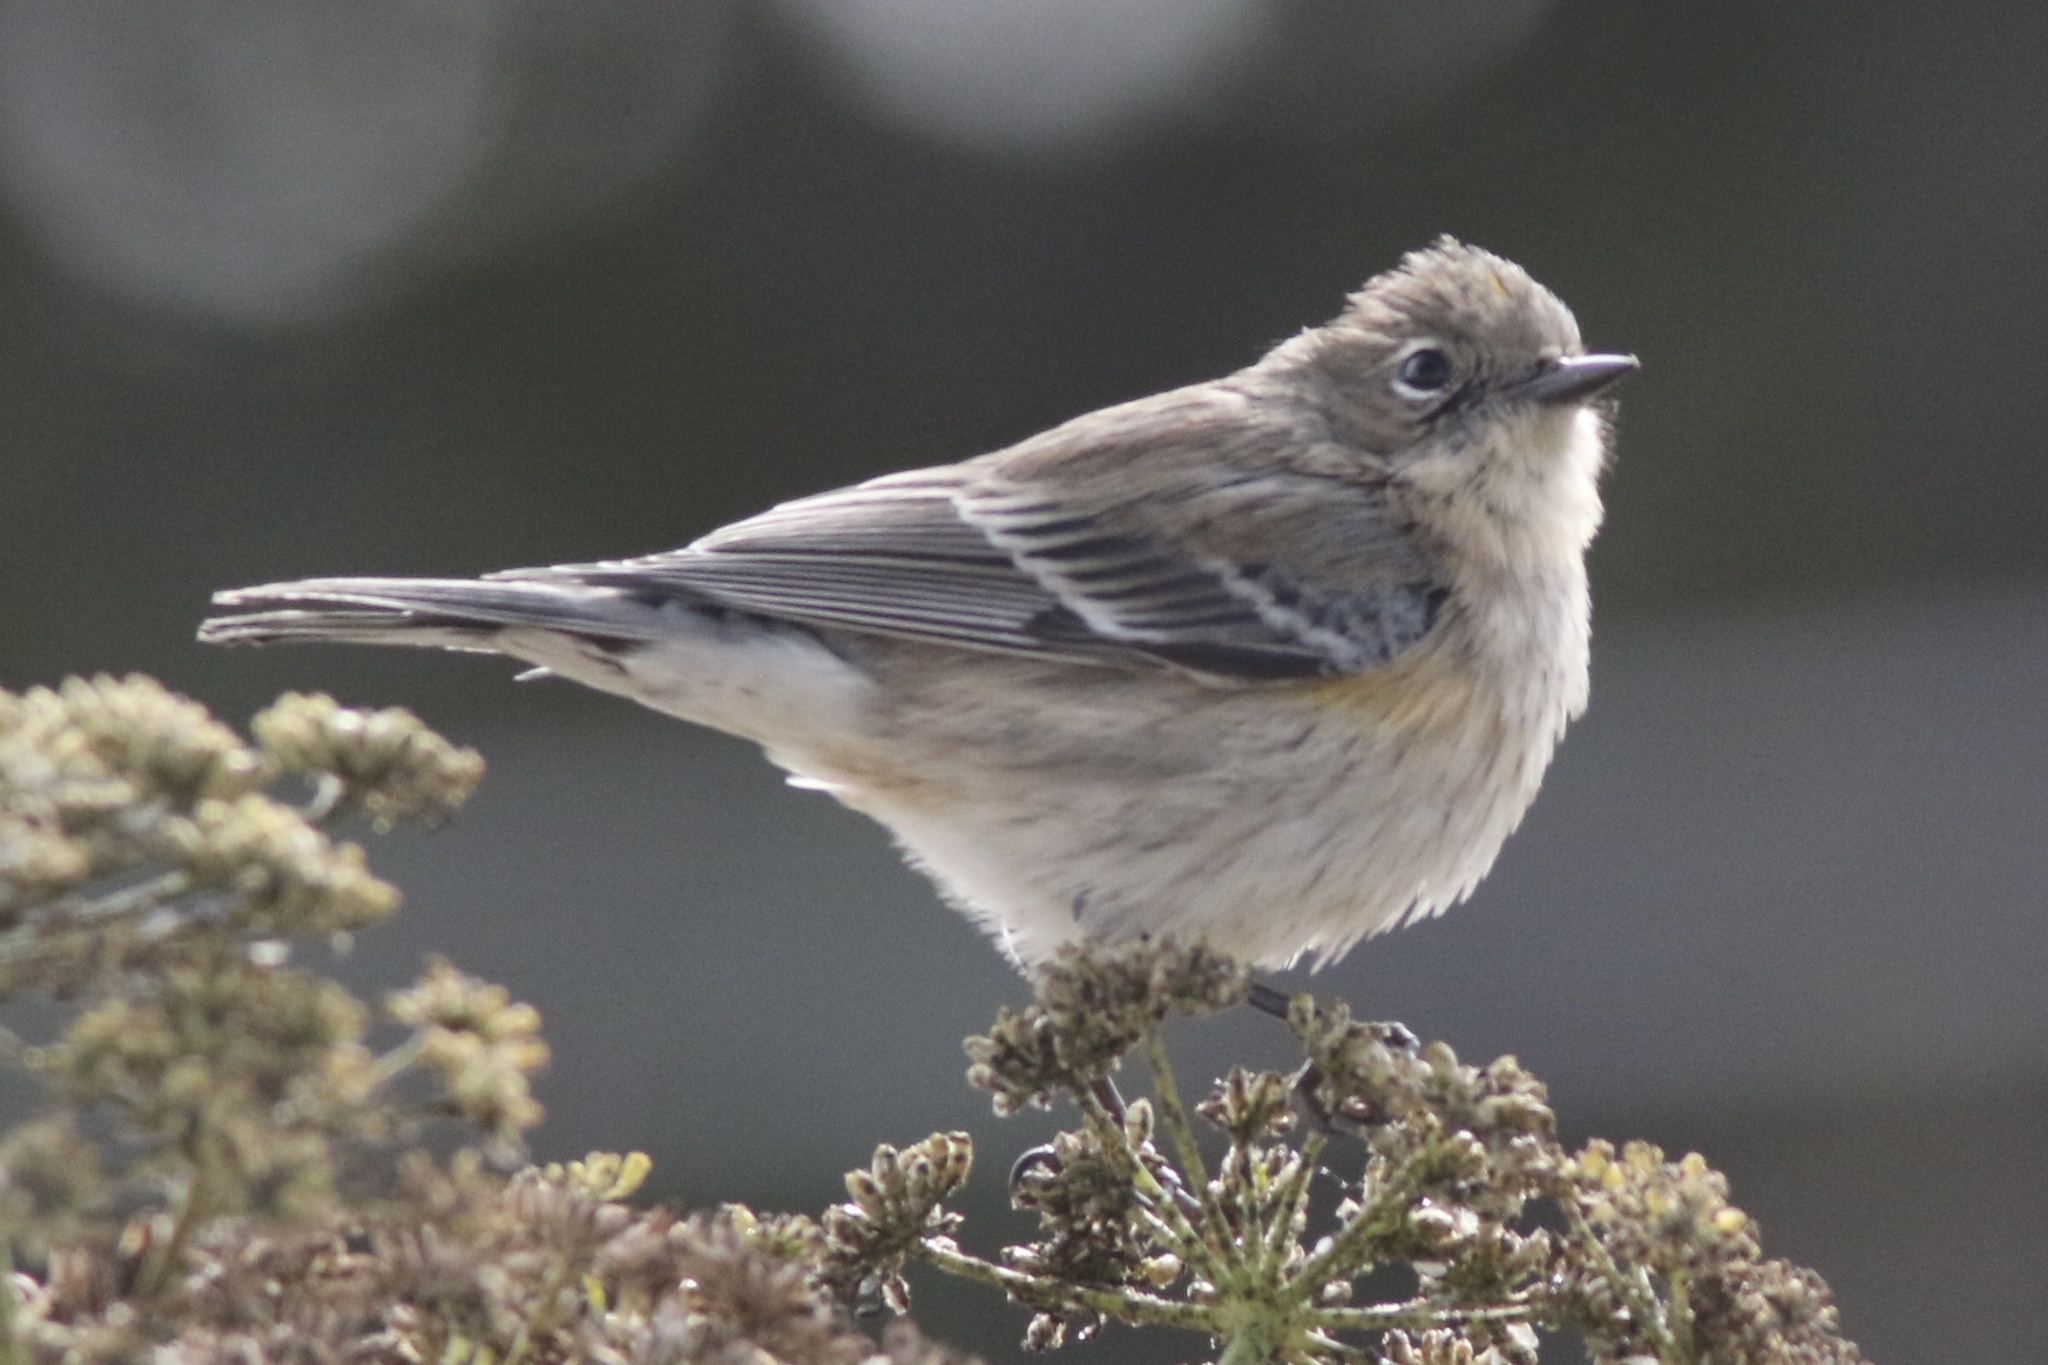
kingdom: Animalia
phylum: Chordata
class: Aves
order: Passeriformes
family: Parulidae
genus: Setophaga
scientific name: Setophaga coronata
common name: Myrtle warbler
